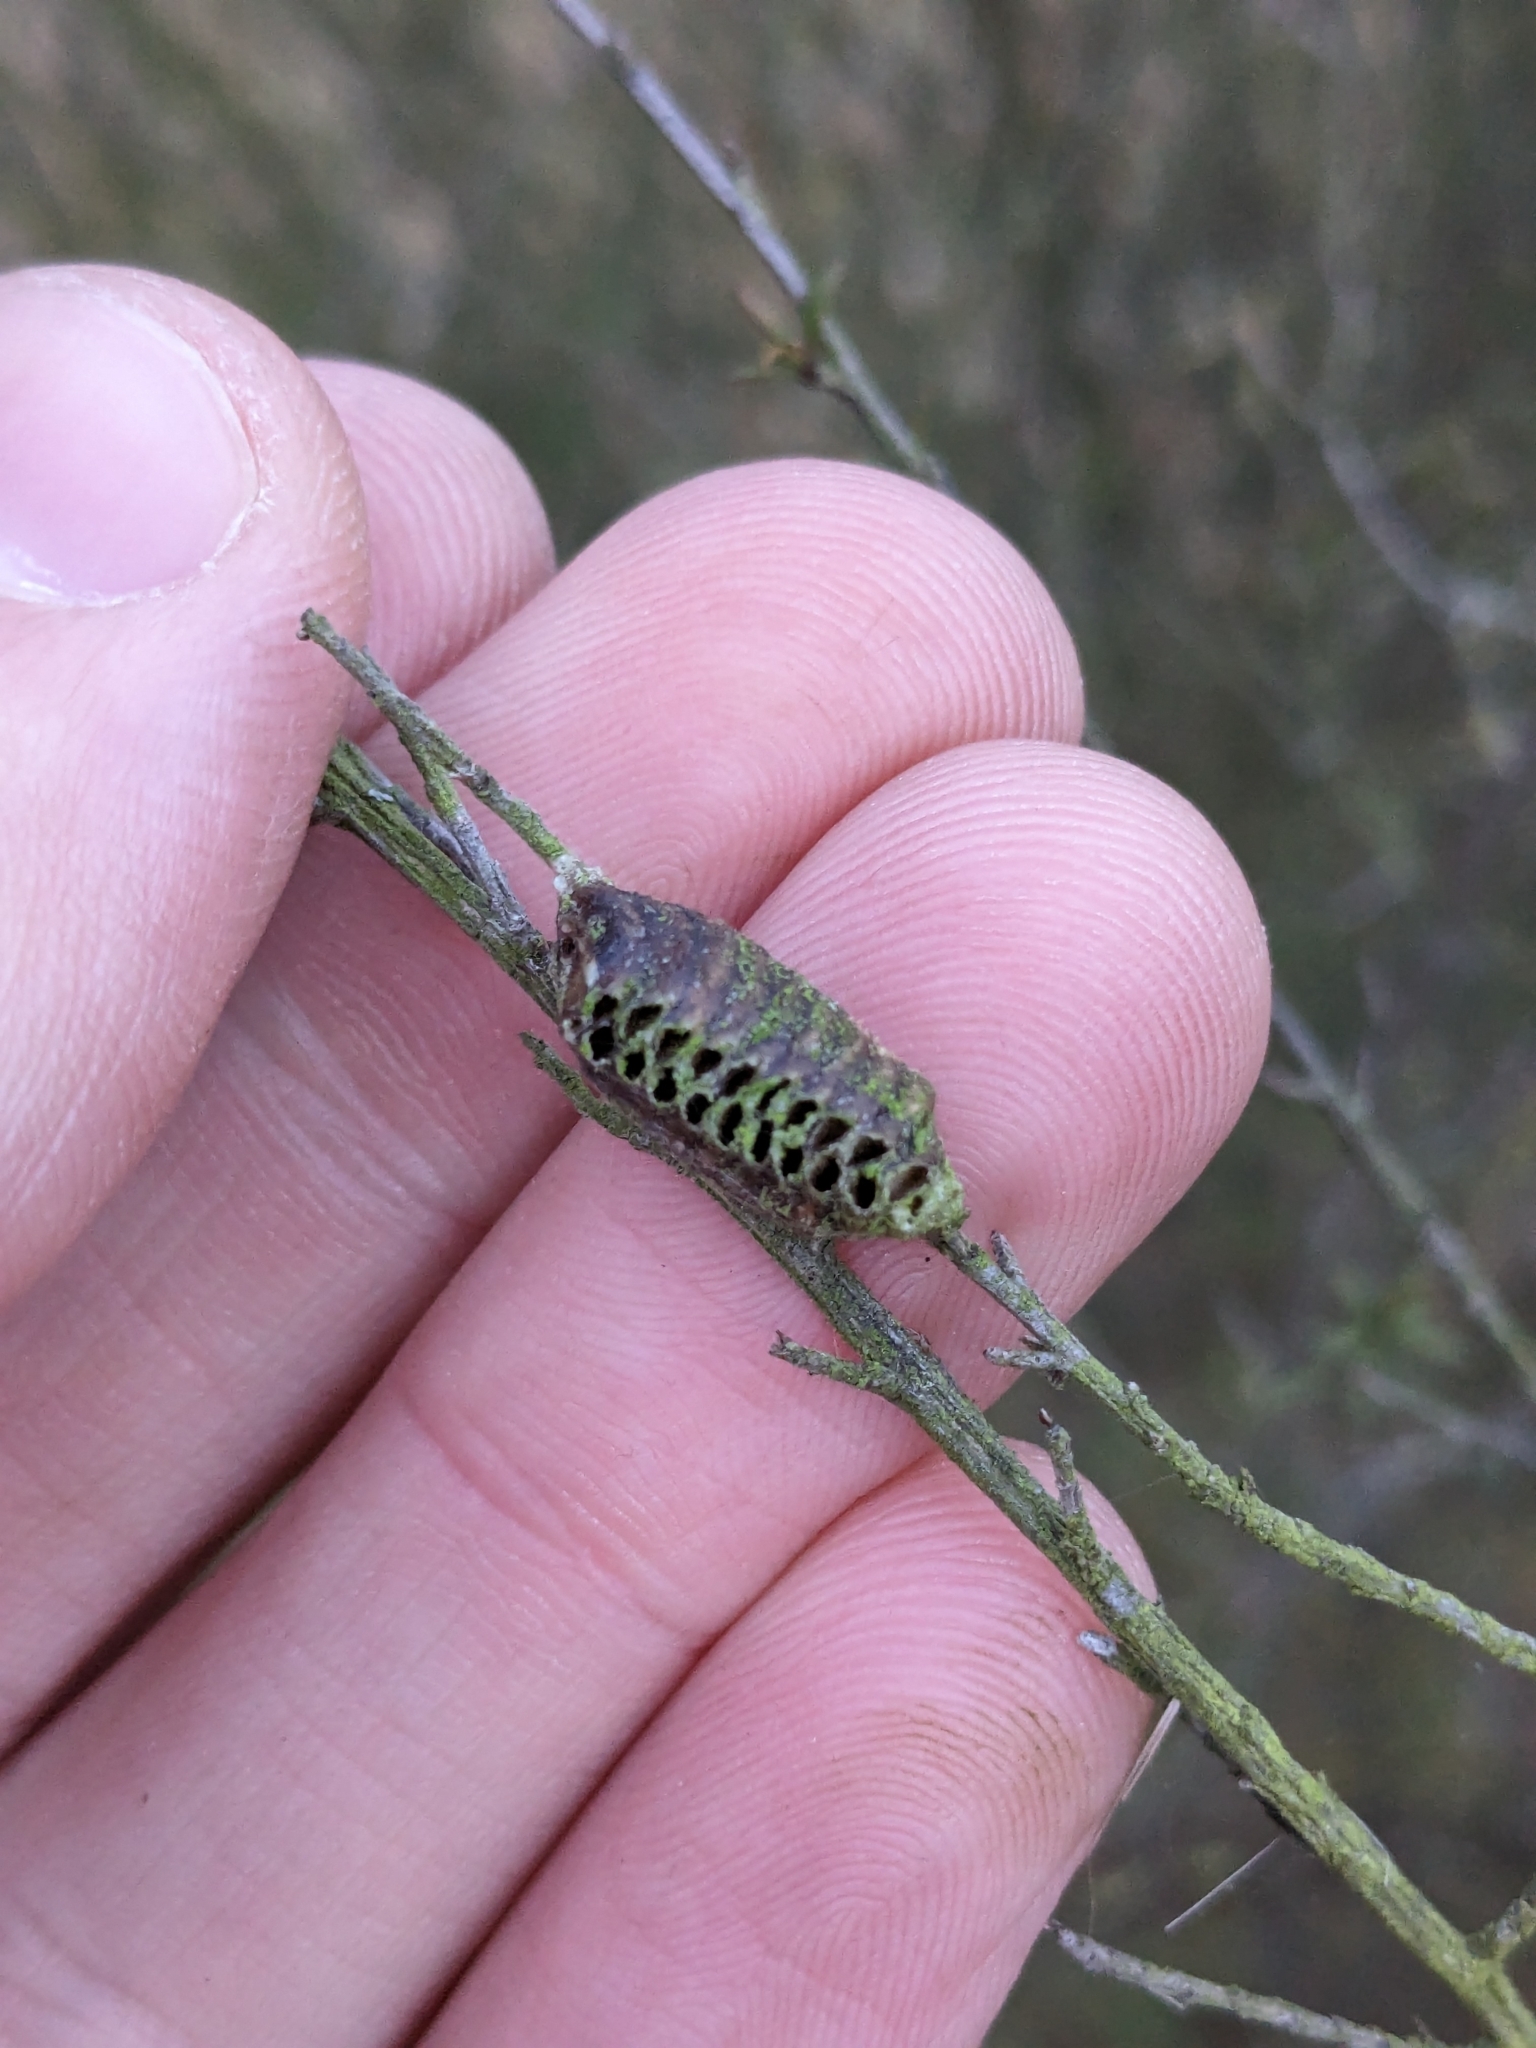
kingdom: Animalia
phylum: Arthropoda
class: Insecta
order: Mantodea
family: Mantidae
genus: Orthodera
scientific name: Orthodera novaezealandiae
